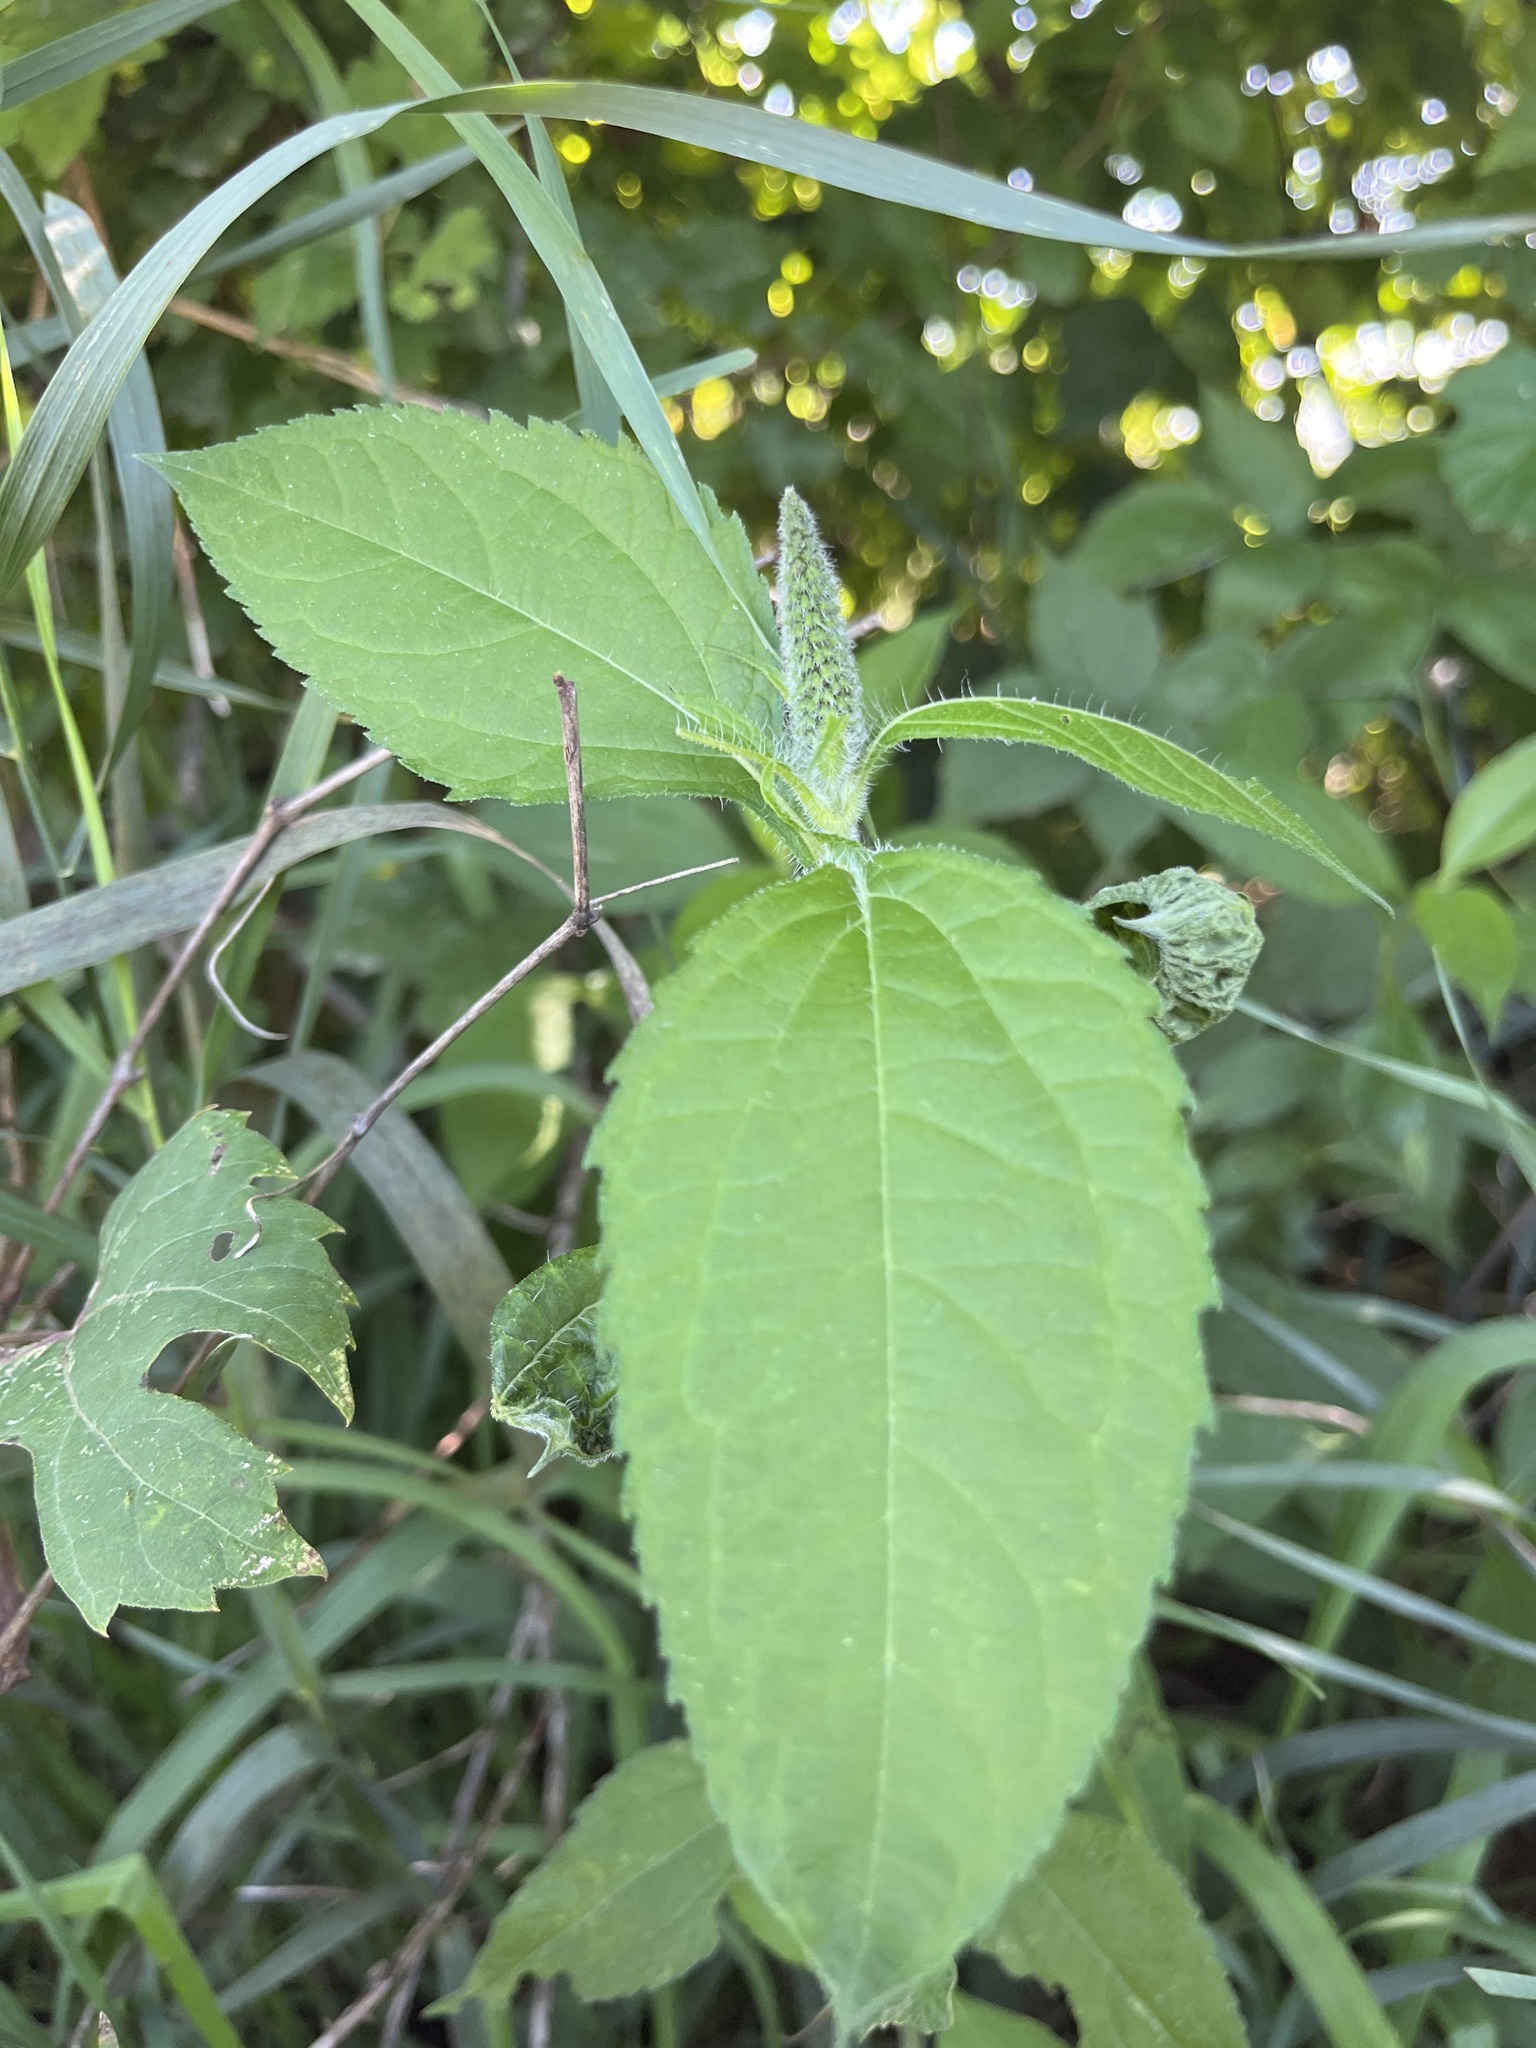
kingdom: Plantae
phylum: Tracheophyta
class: Magnoliopsida
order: Asterales
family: Asteraceae
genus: Ambrosia
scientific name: Ambrosia trifida
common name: Giant ragweed
